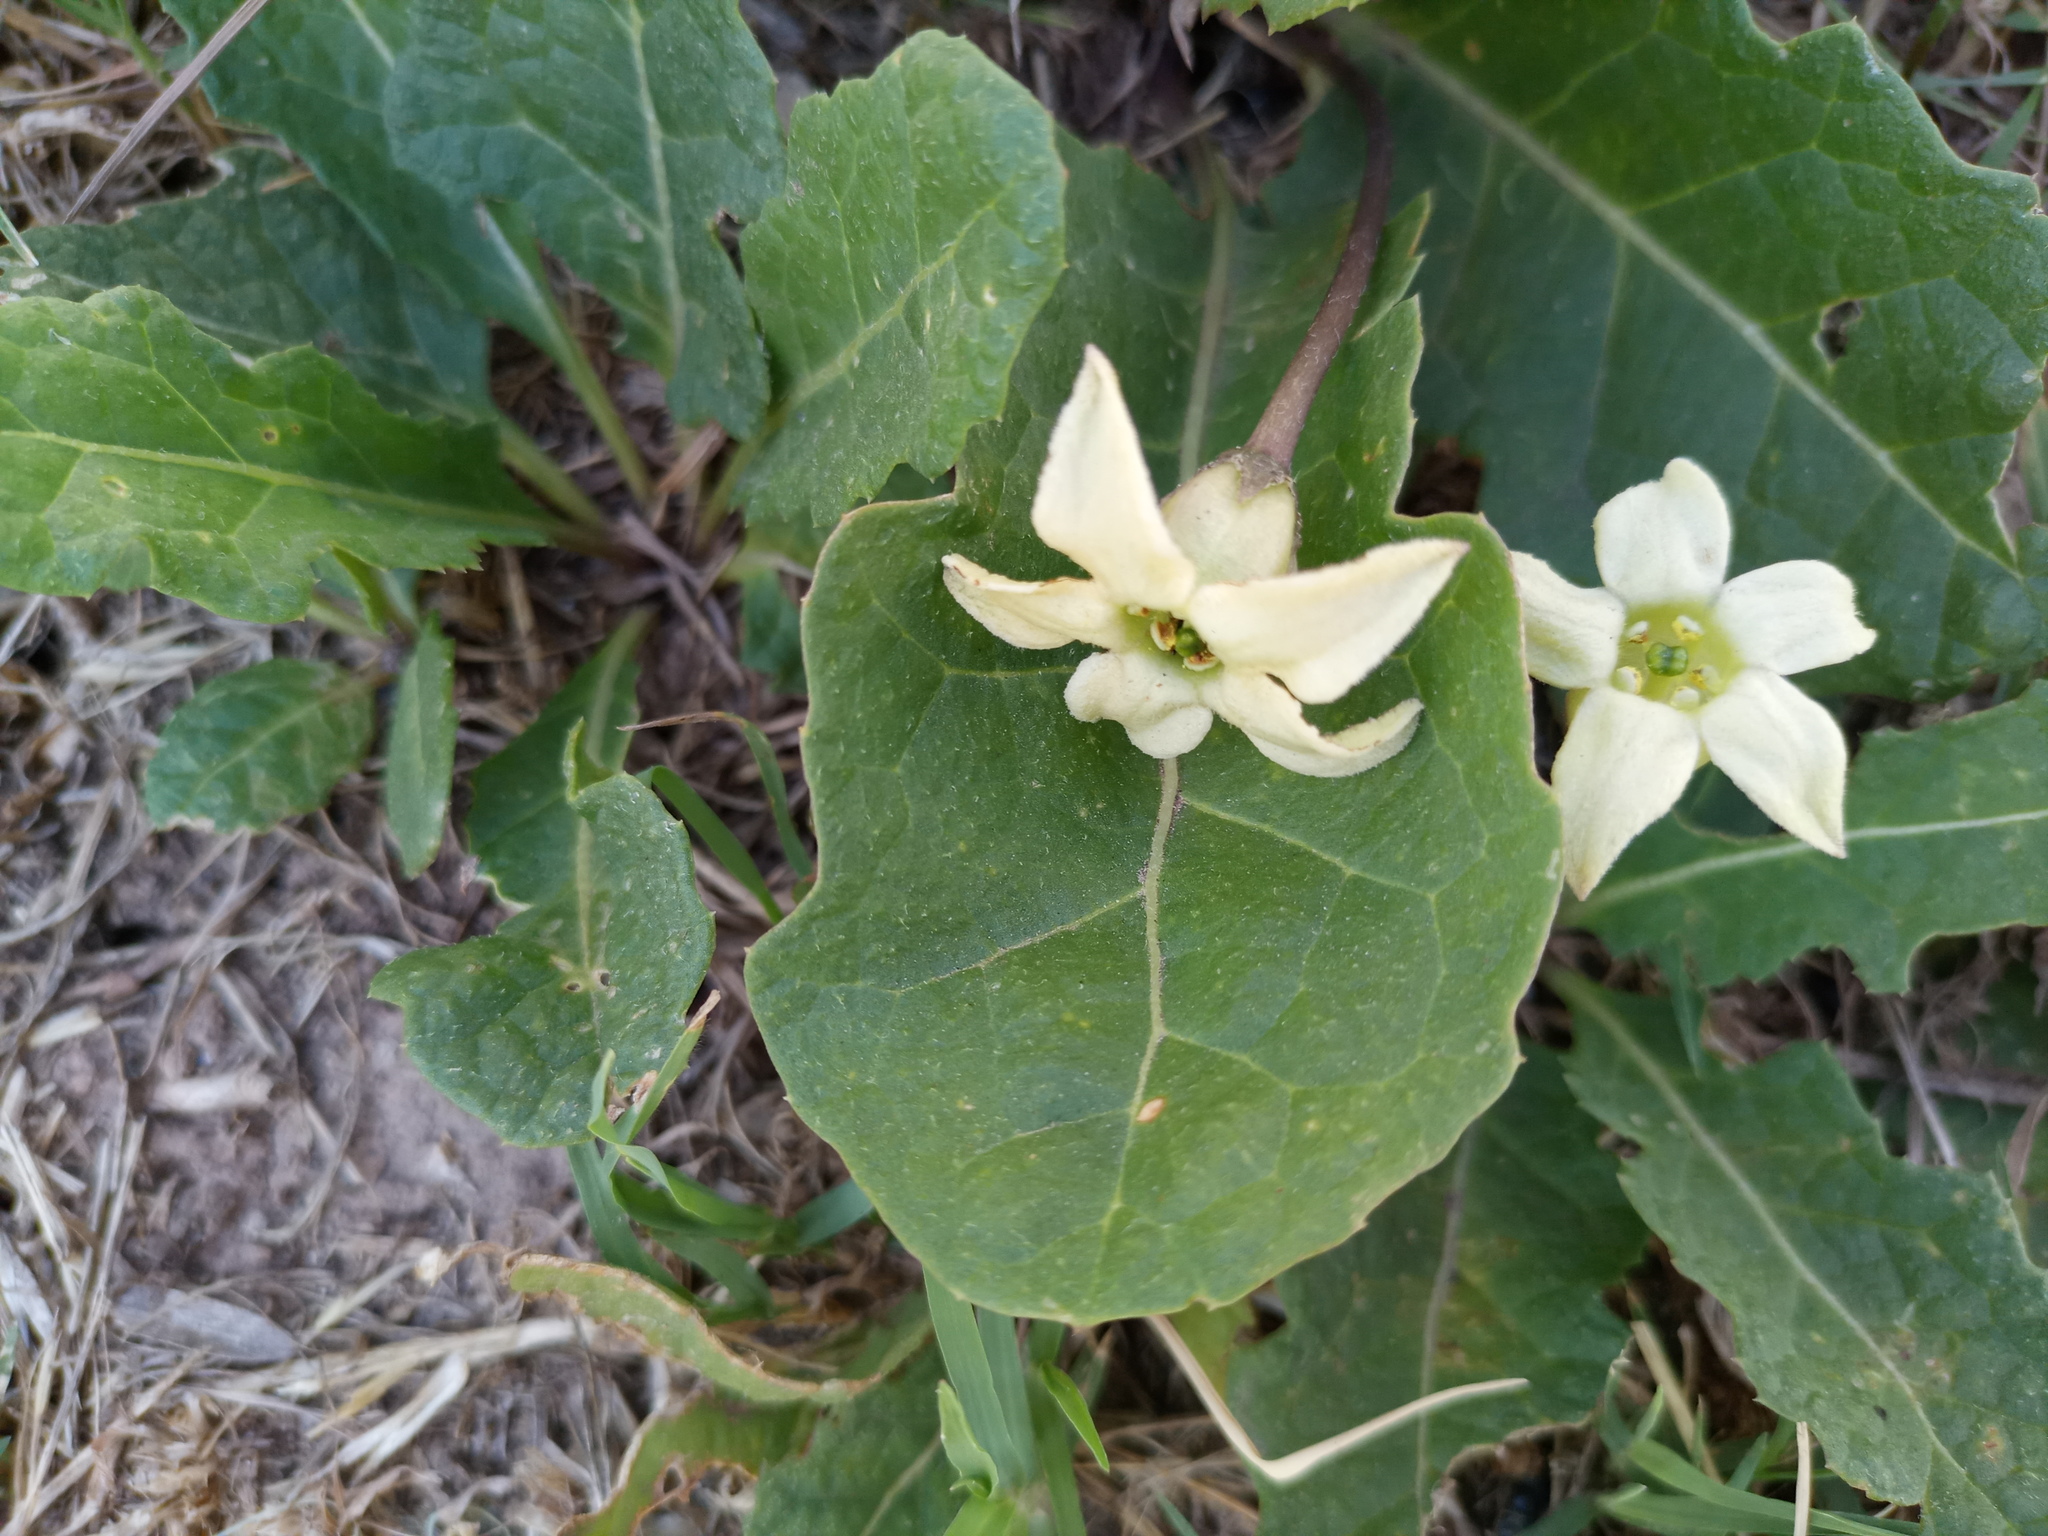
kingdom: Plantae
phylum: Tracheophyta
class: Magnoliopsida
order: Solanales
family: Solanaceae
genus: Jaborosa
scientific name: Jaborosa runcinata
